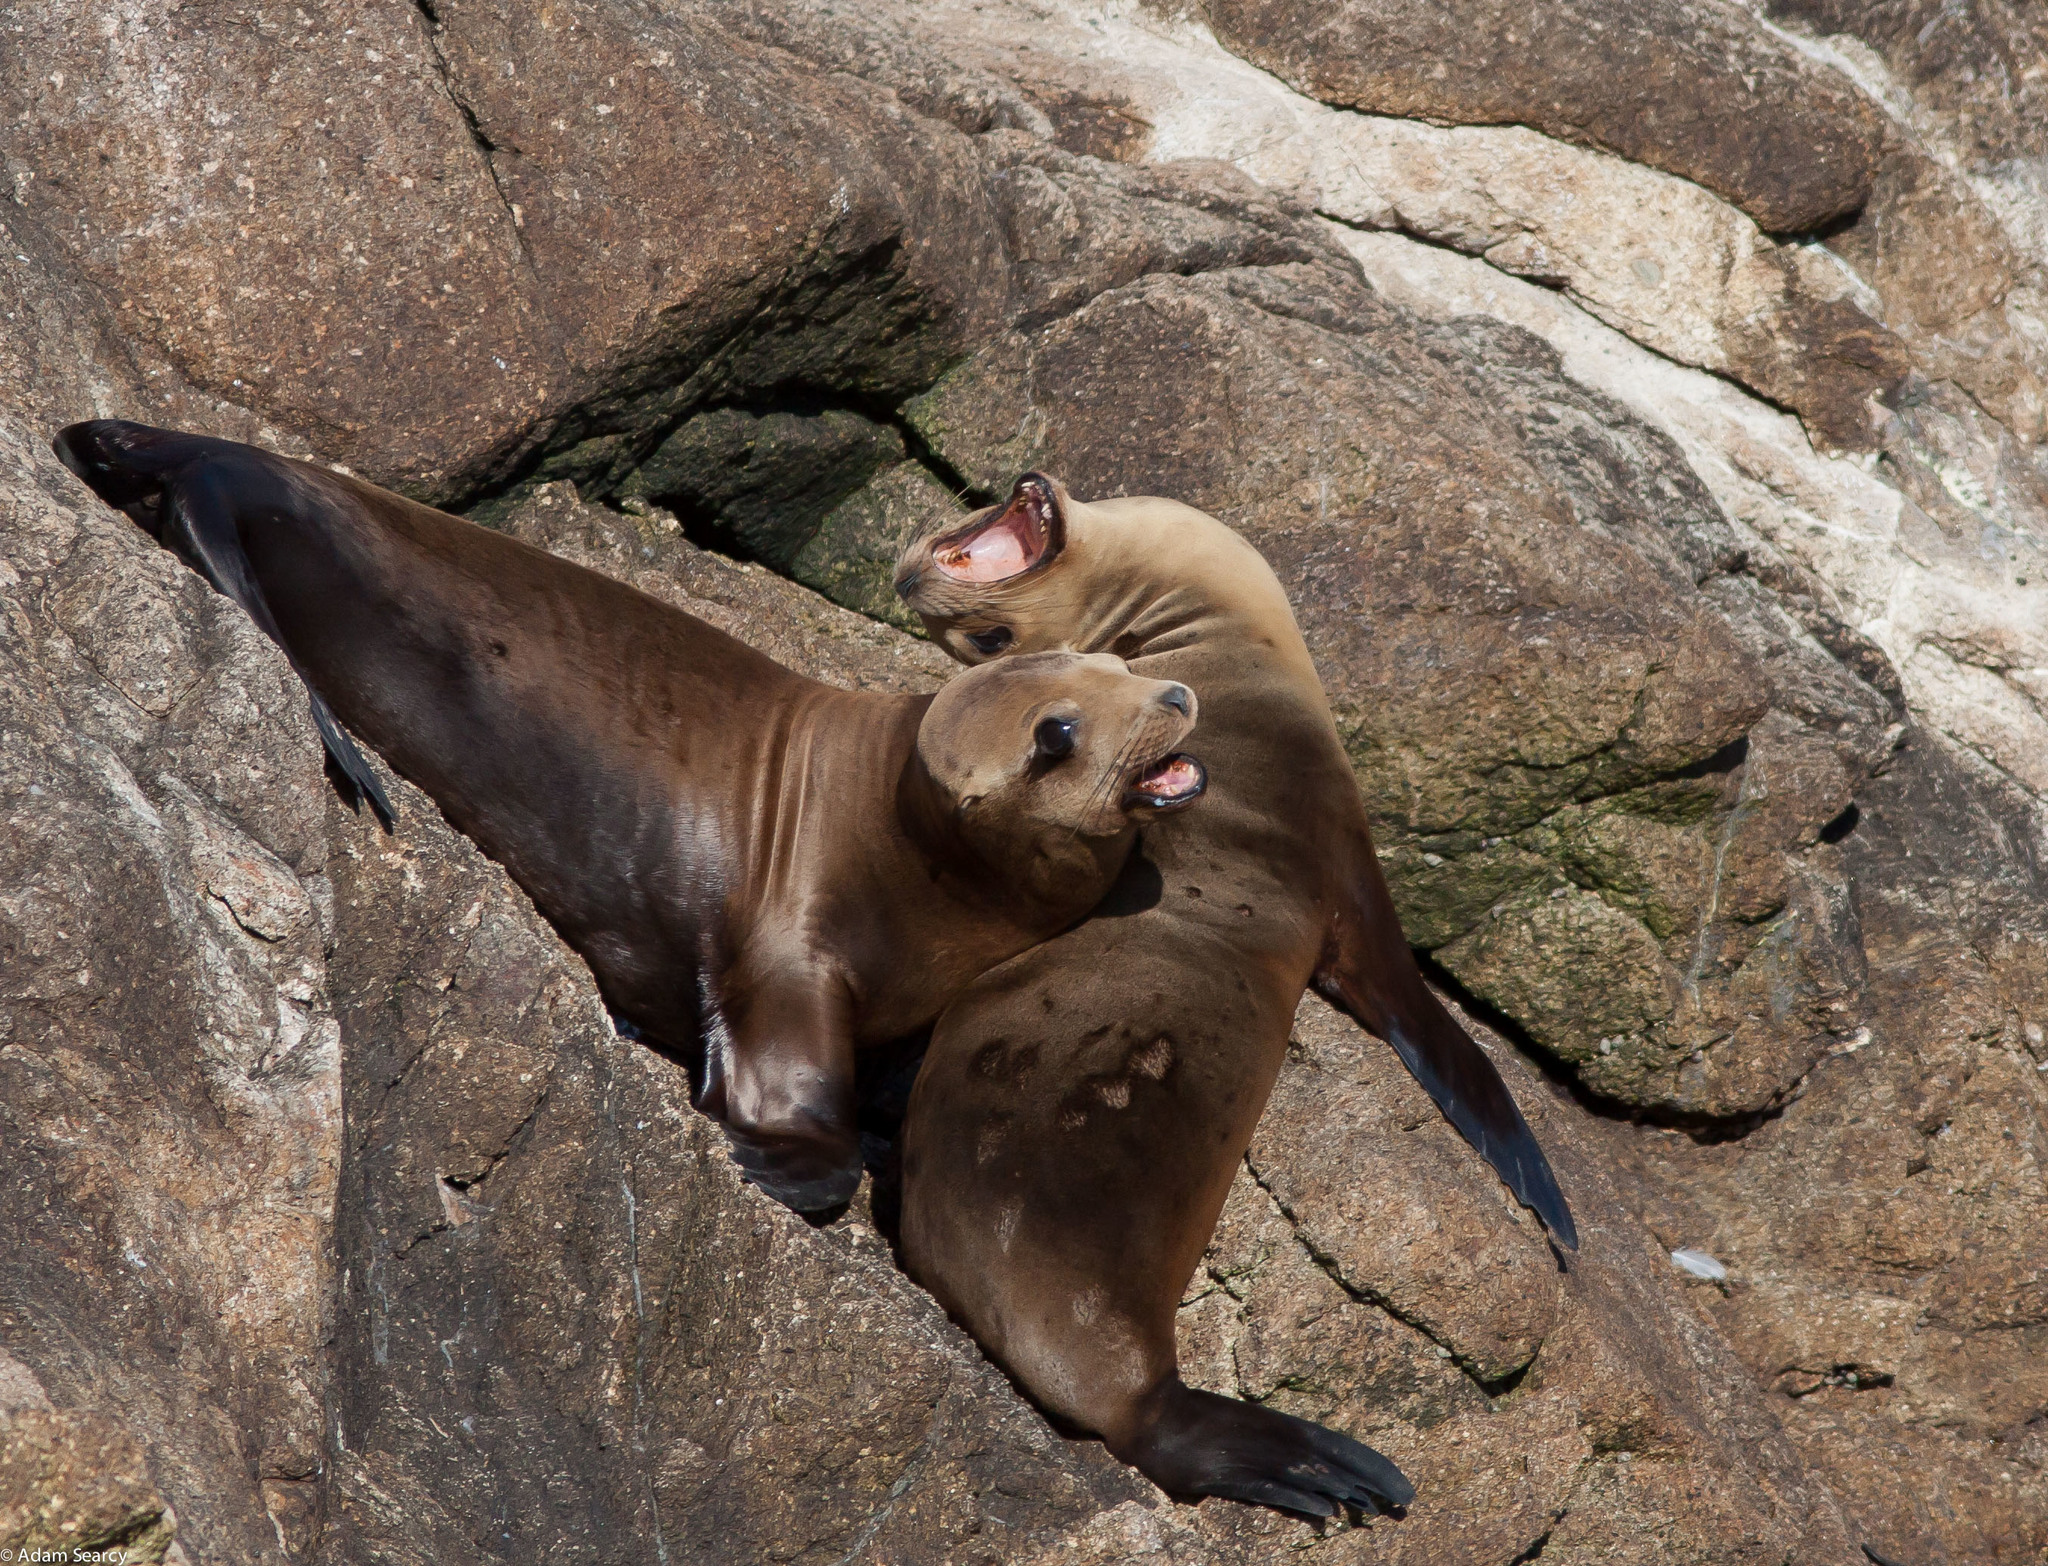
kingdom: Animalia
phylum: Chordata
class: Mammalia
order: Carnivora
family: Otariidae
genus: Zalophus
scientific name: Zalophus californianus
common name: California sea lion
